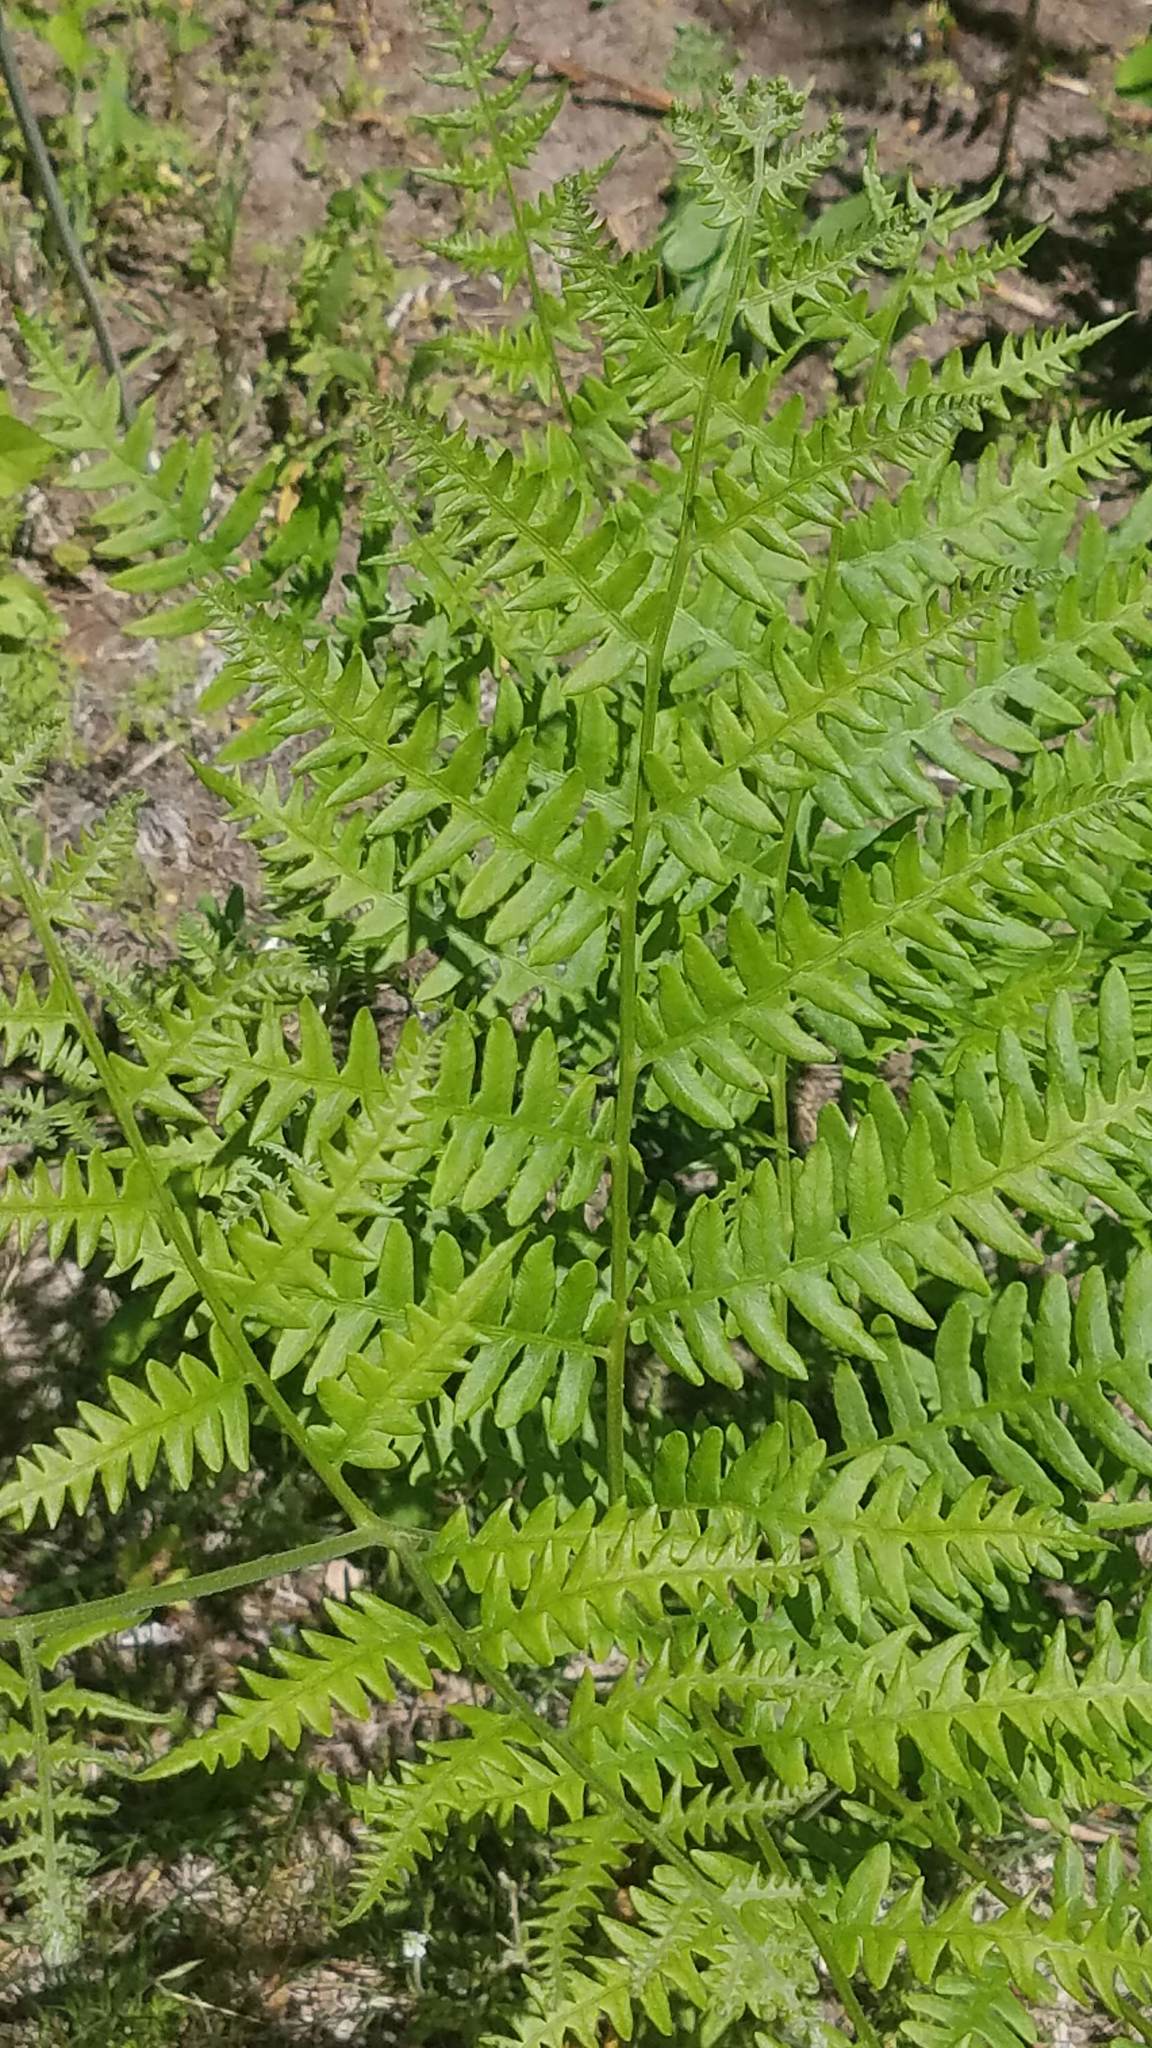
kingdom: Plantae
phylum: Tracheophyta
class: Polypodiopsida
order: Polypodiales
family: Dennstaedtiaceae
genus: Pteridium
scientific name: Pteridium aquilinum
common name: Bracken
